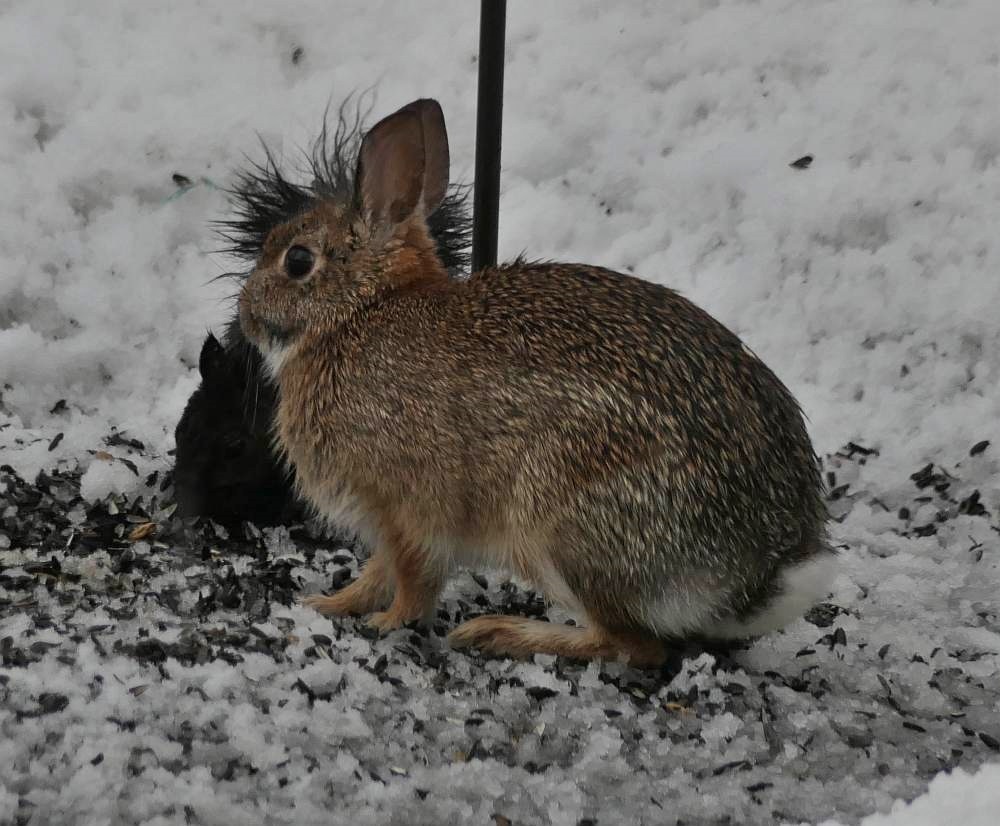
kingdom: Animalia
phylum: Chordata
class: Mammalia
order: Lagomorpha
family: Leporidae
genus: Sylvilagus
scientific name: Sylvilagus floridanus
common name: Eastern cottontail
